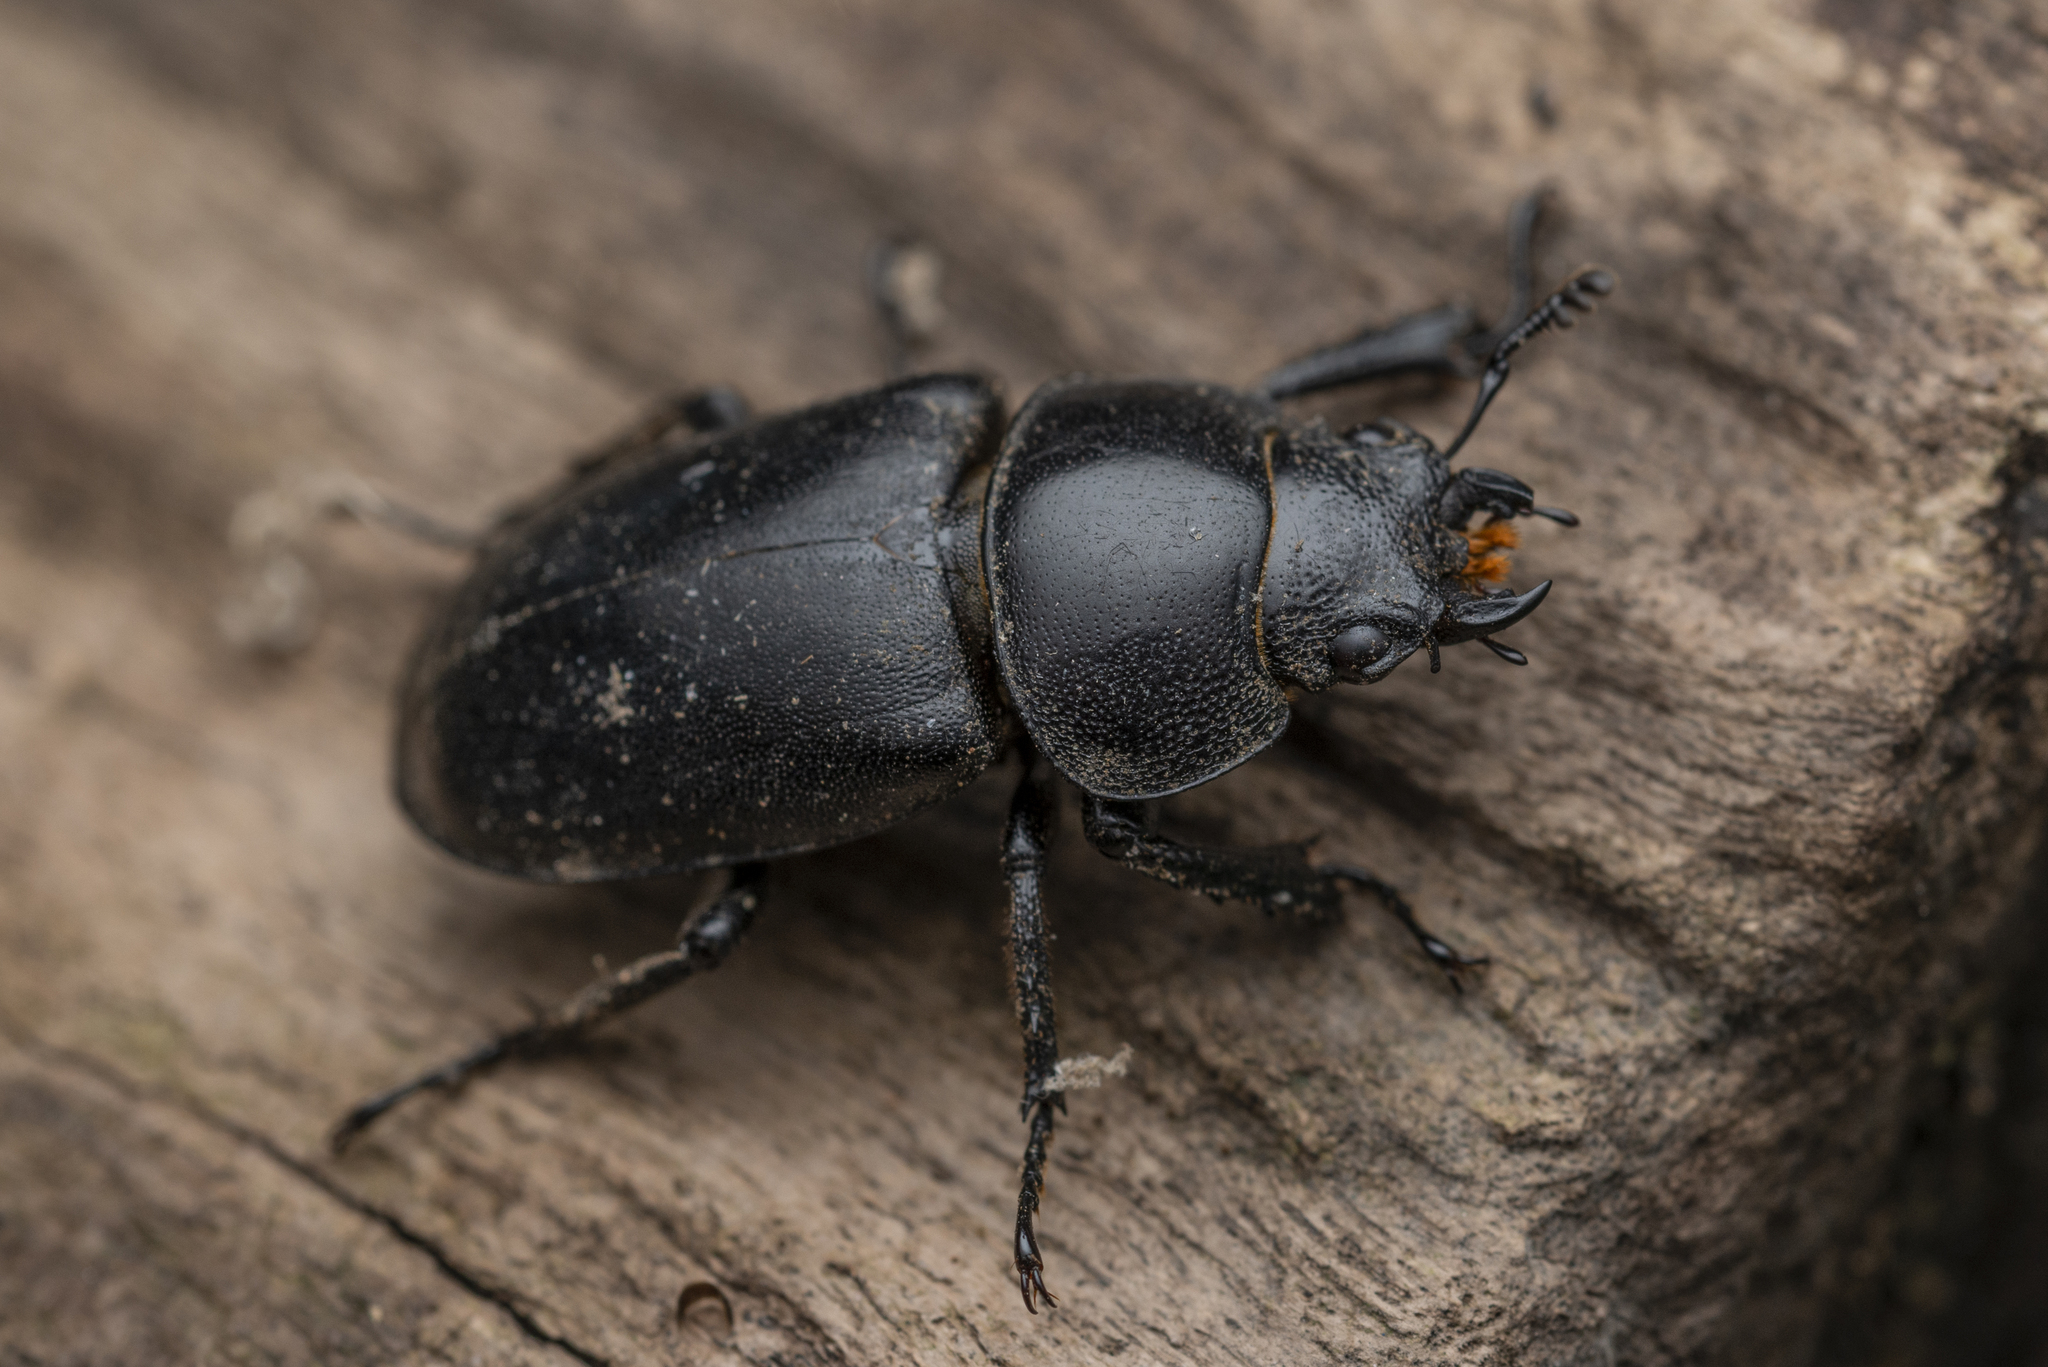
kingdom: Animalia
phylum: Arthropoda
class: Insecta
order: Coleoptera
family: Lucanidae
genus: Prosopocoilus
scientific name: Prosopocoilus oweni
